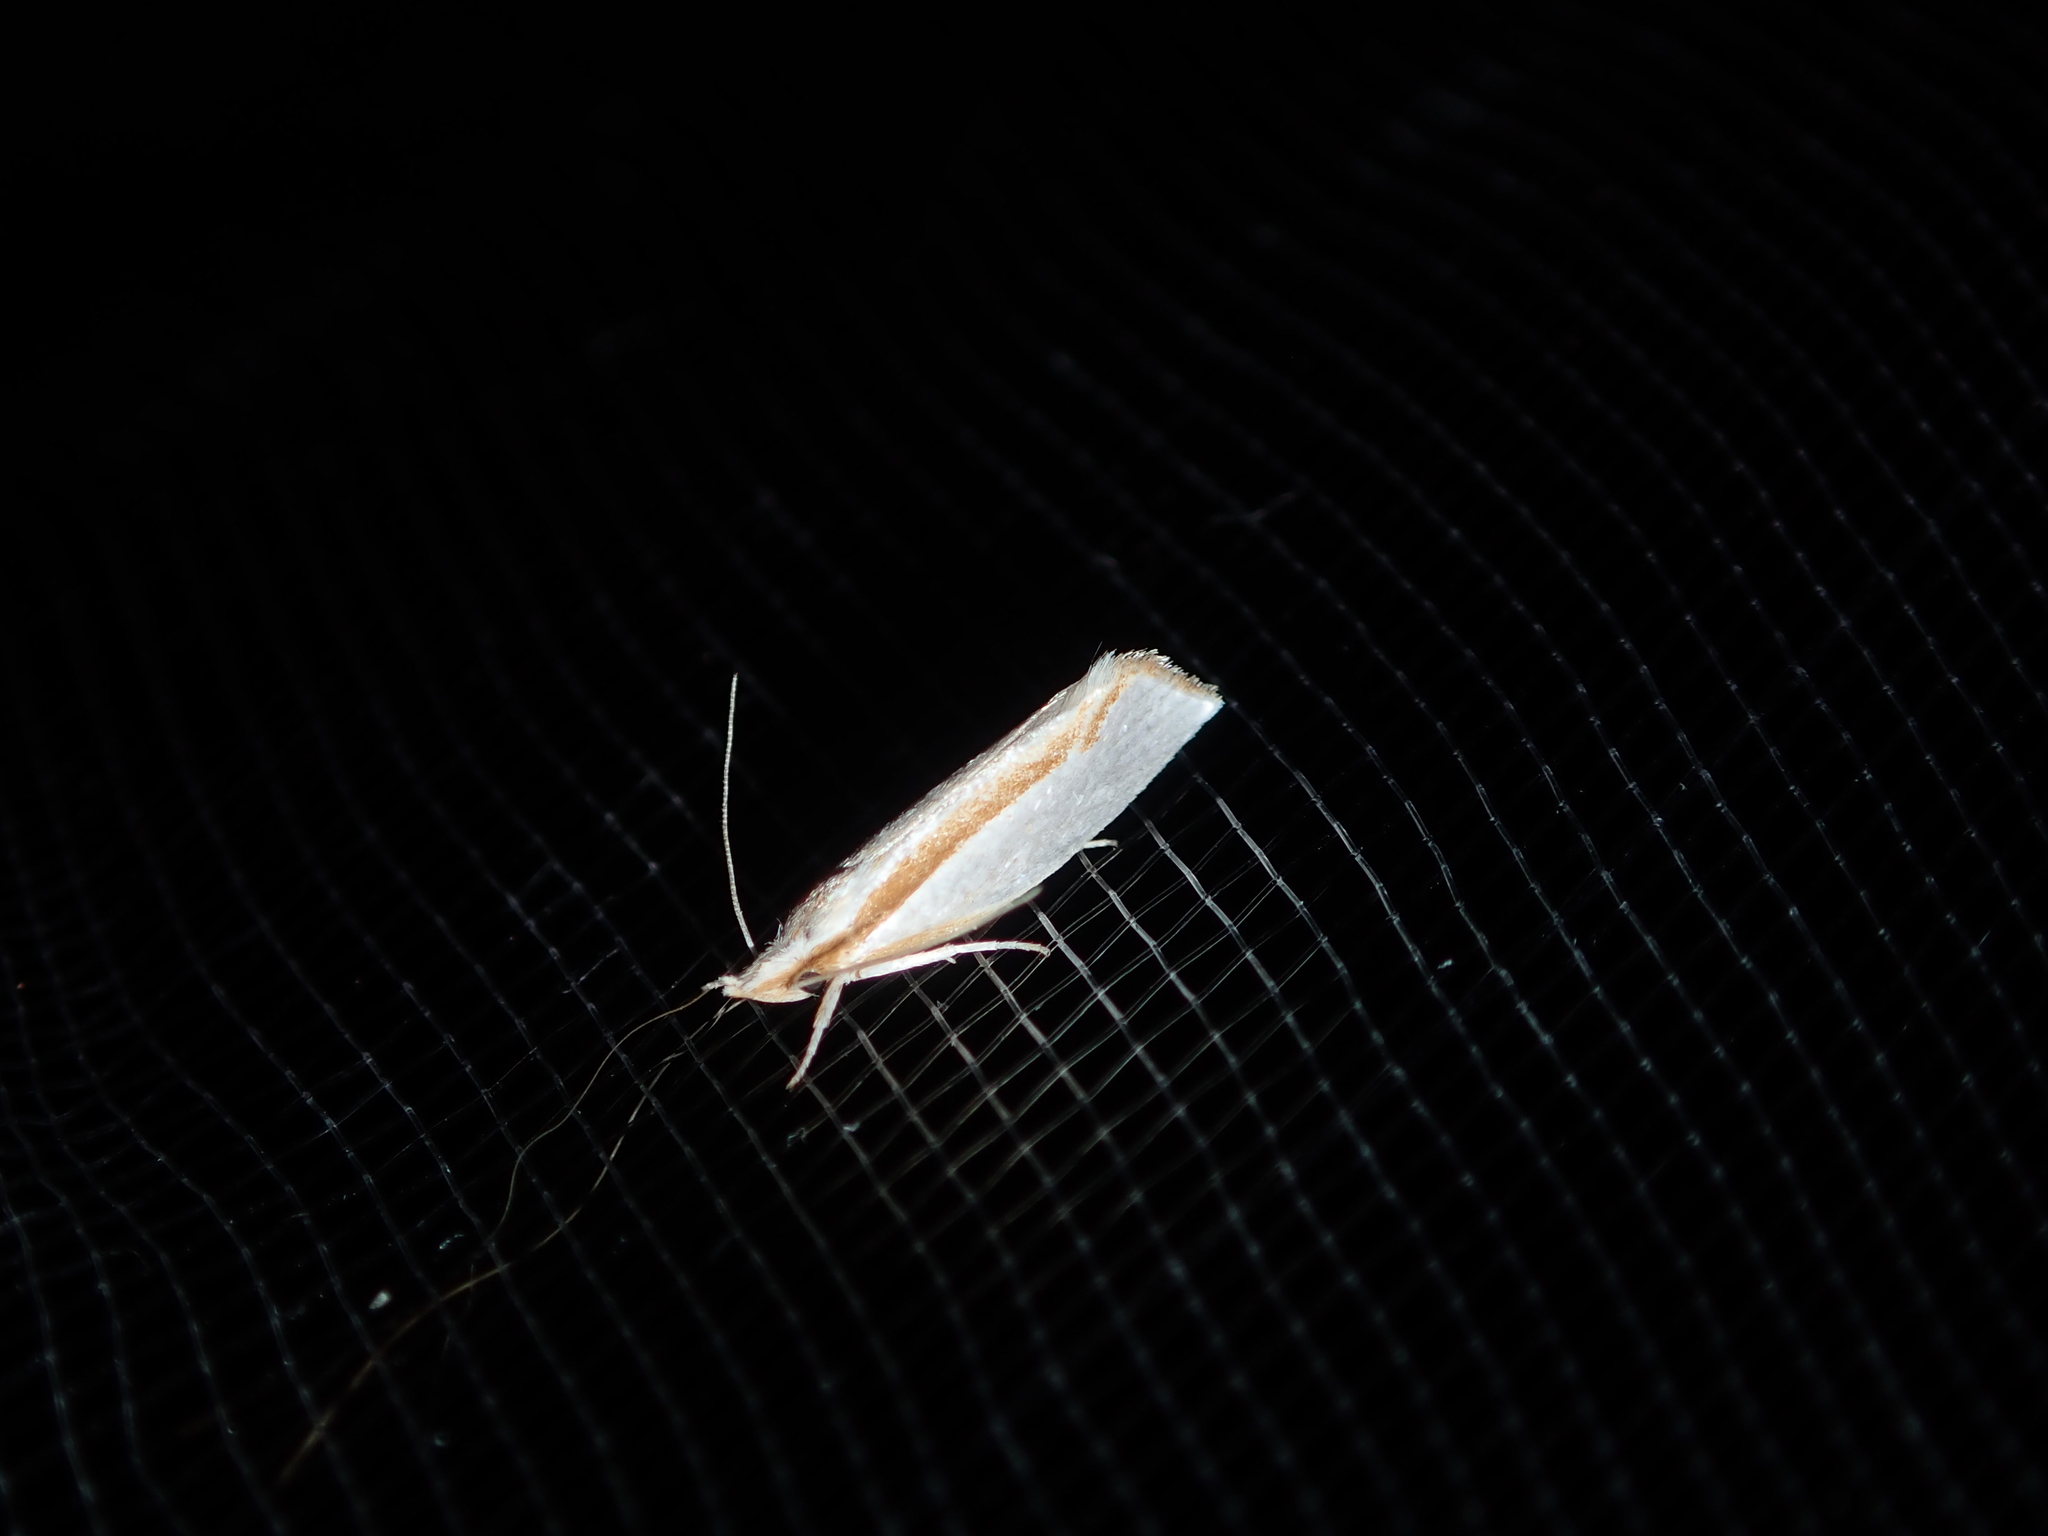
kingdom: Animalia
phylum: Arthropoda
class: Insecta
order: Lepidoptera
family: Depressariidae
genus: Thudaca
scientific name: Thudaca circumdatella
